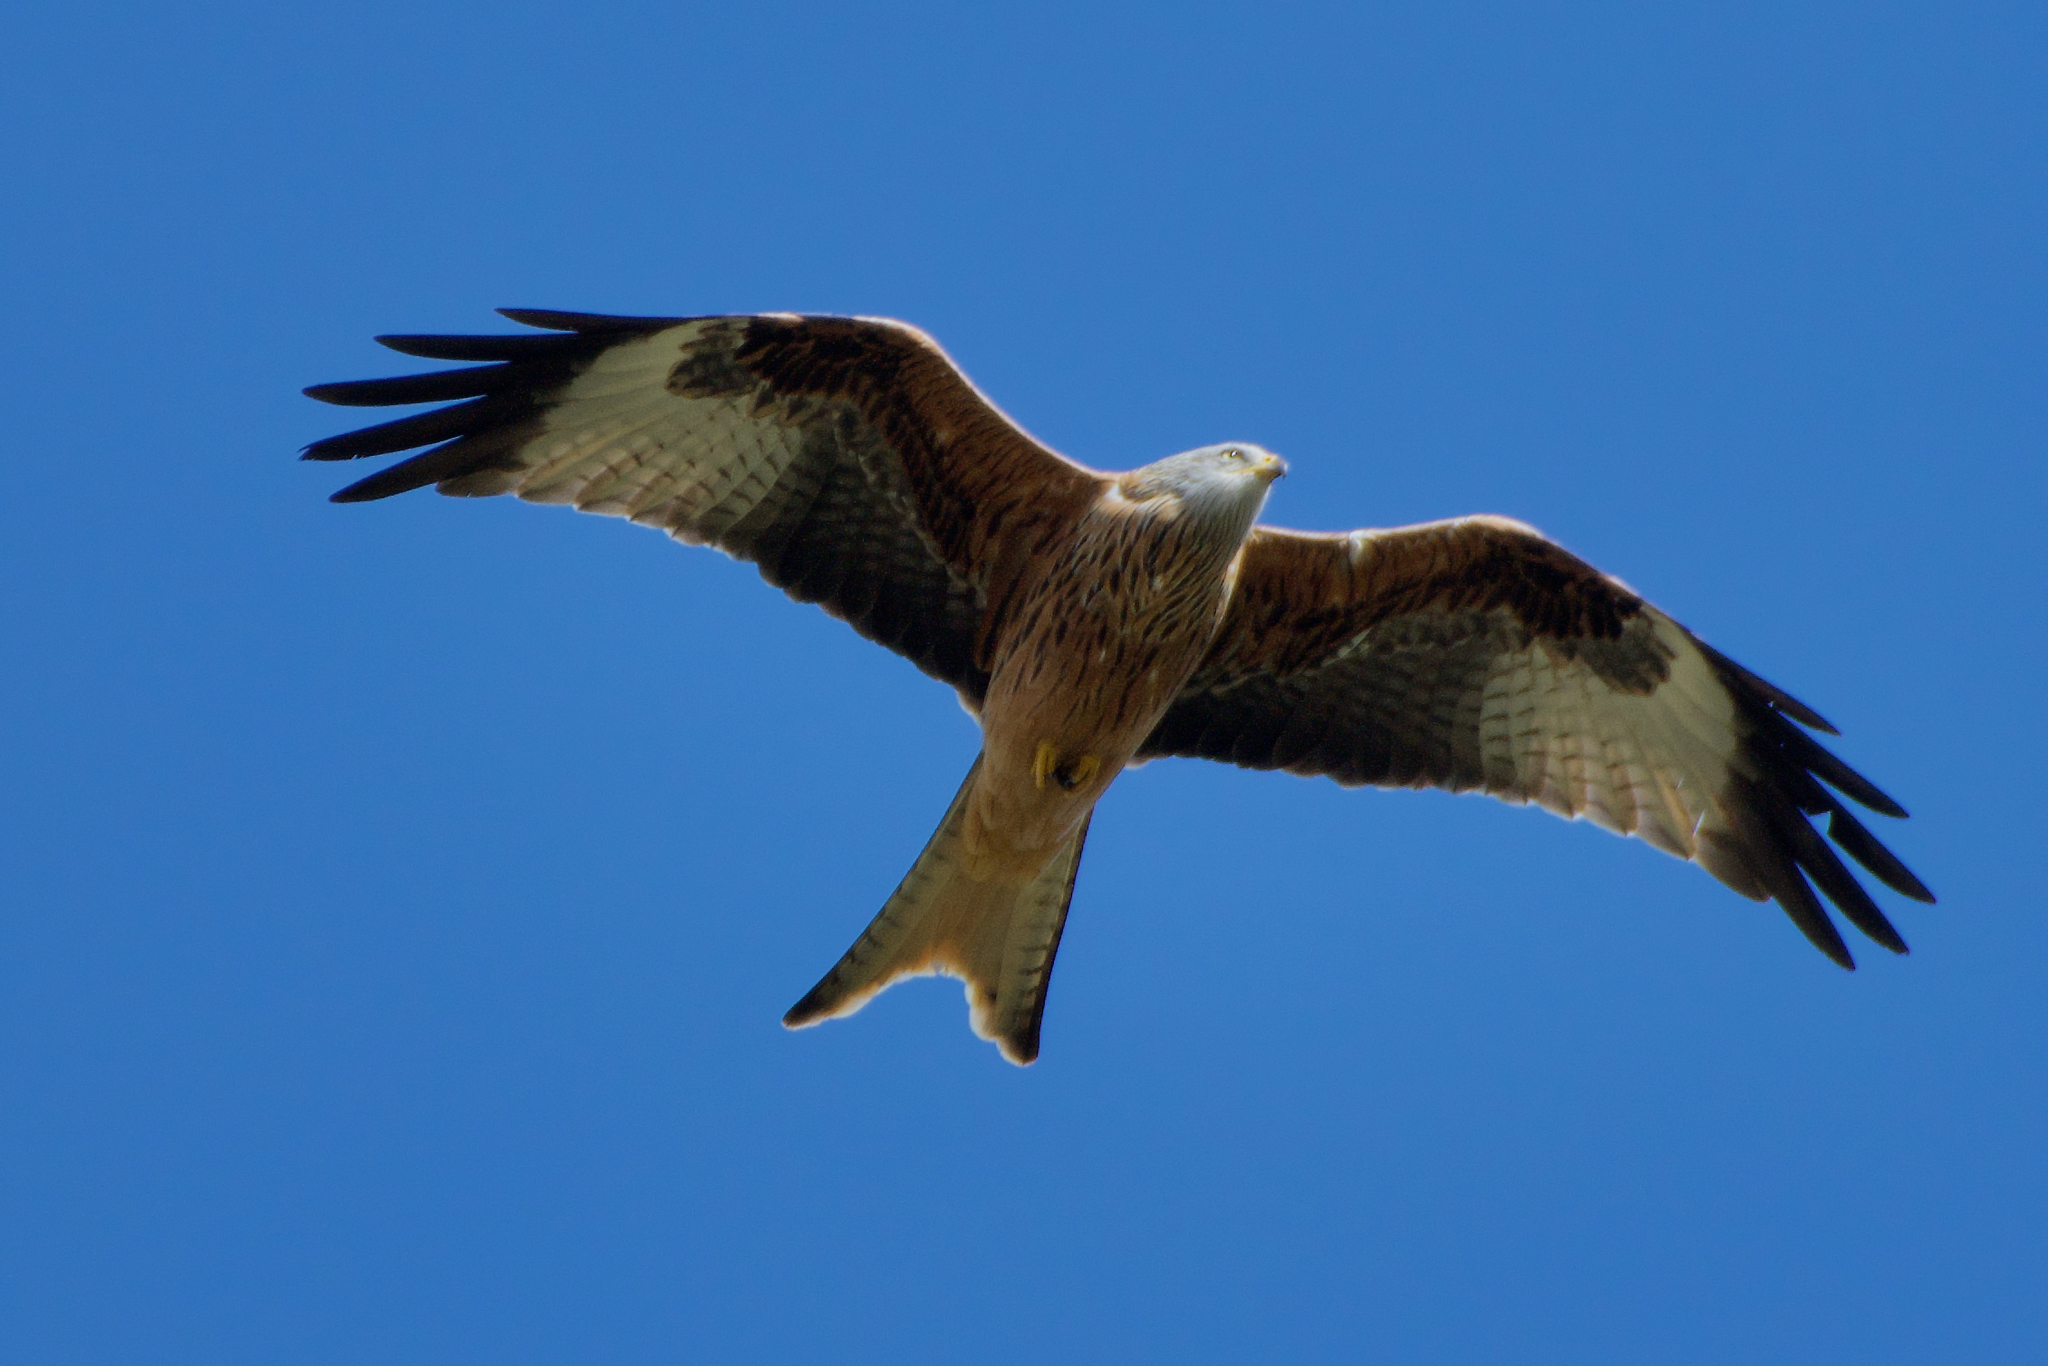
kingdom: Animalia
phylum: Chordata
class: Aves
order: Accipitriformes
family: Accipitridae
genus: Milvus
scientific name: Milvus milvus
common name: Red kite
